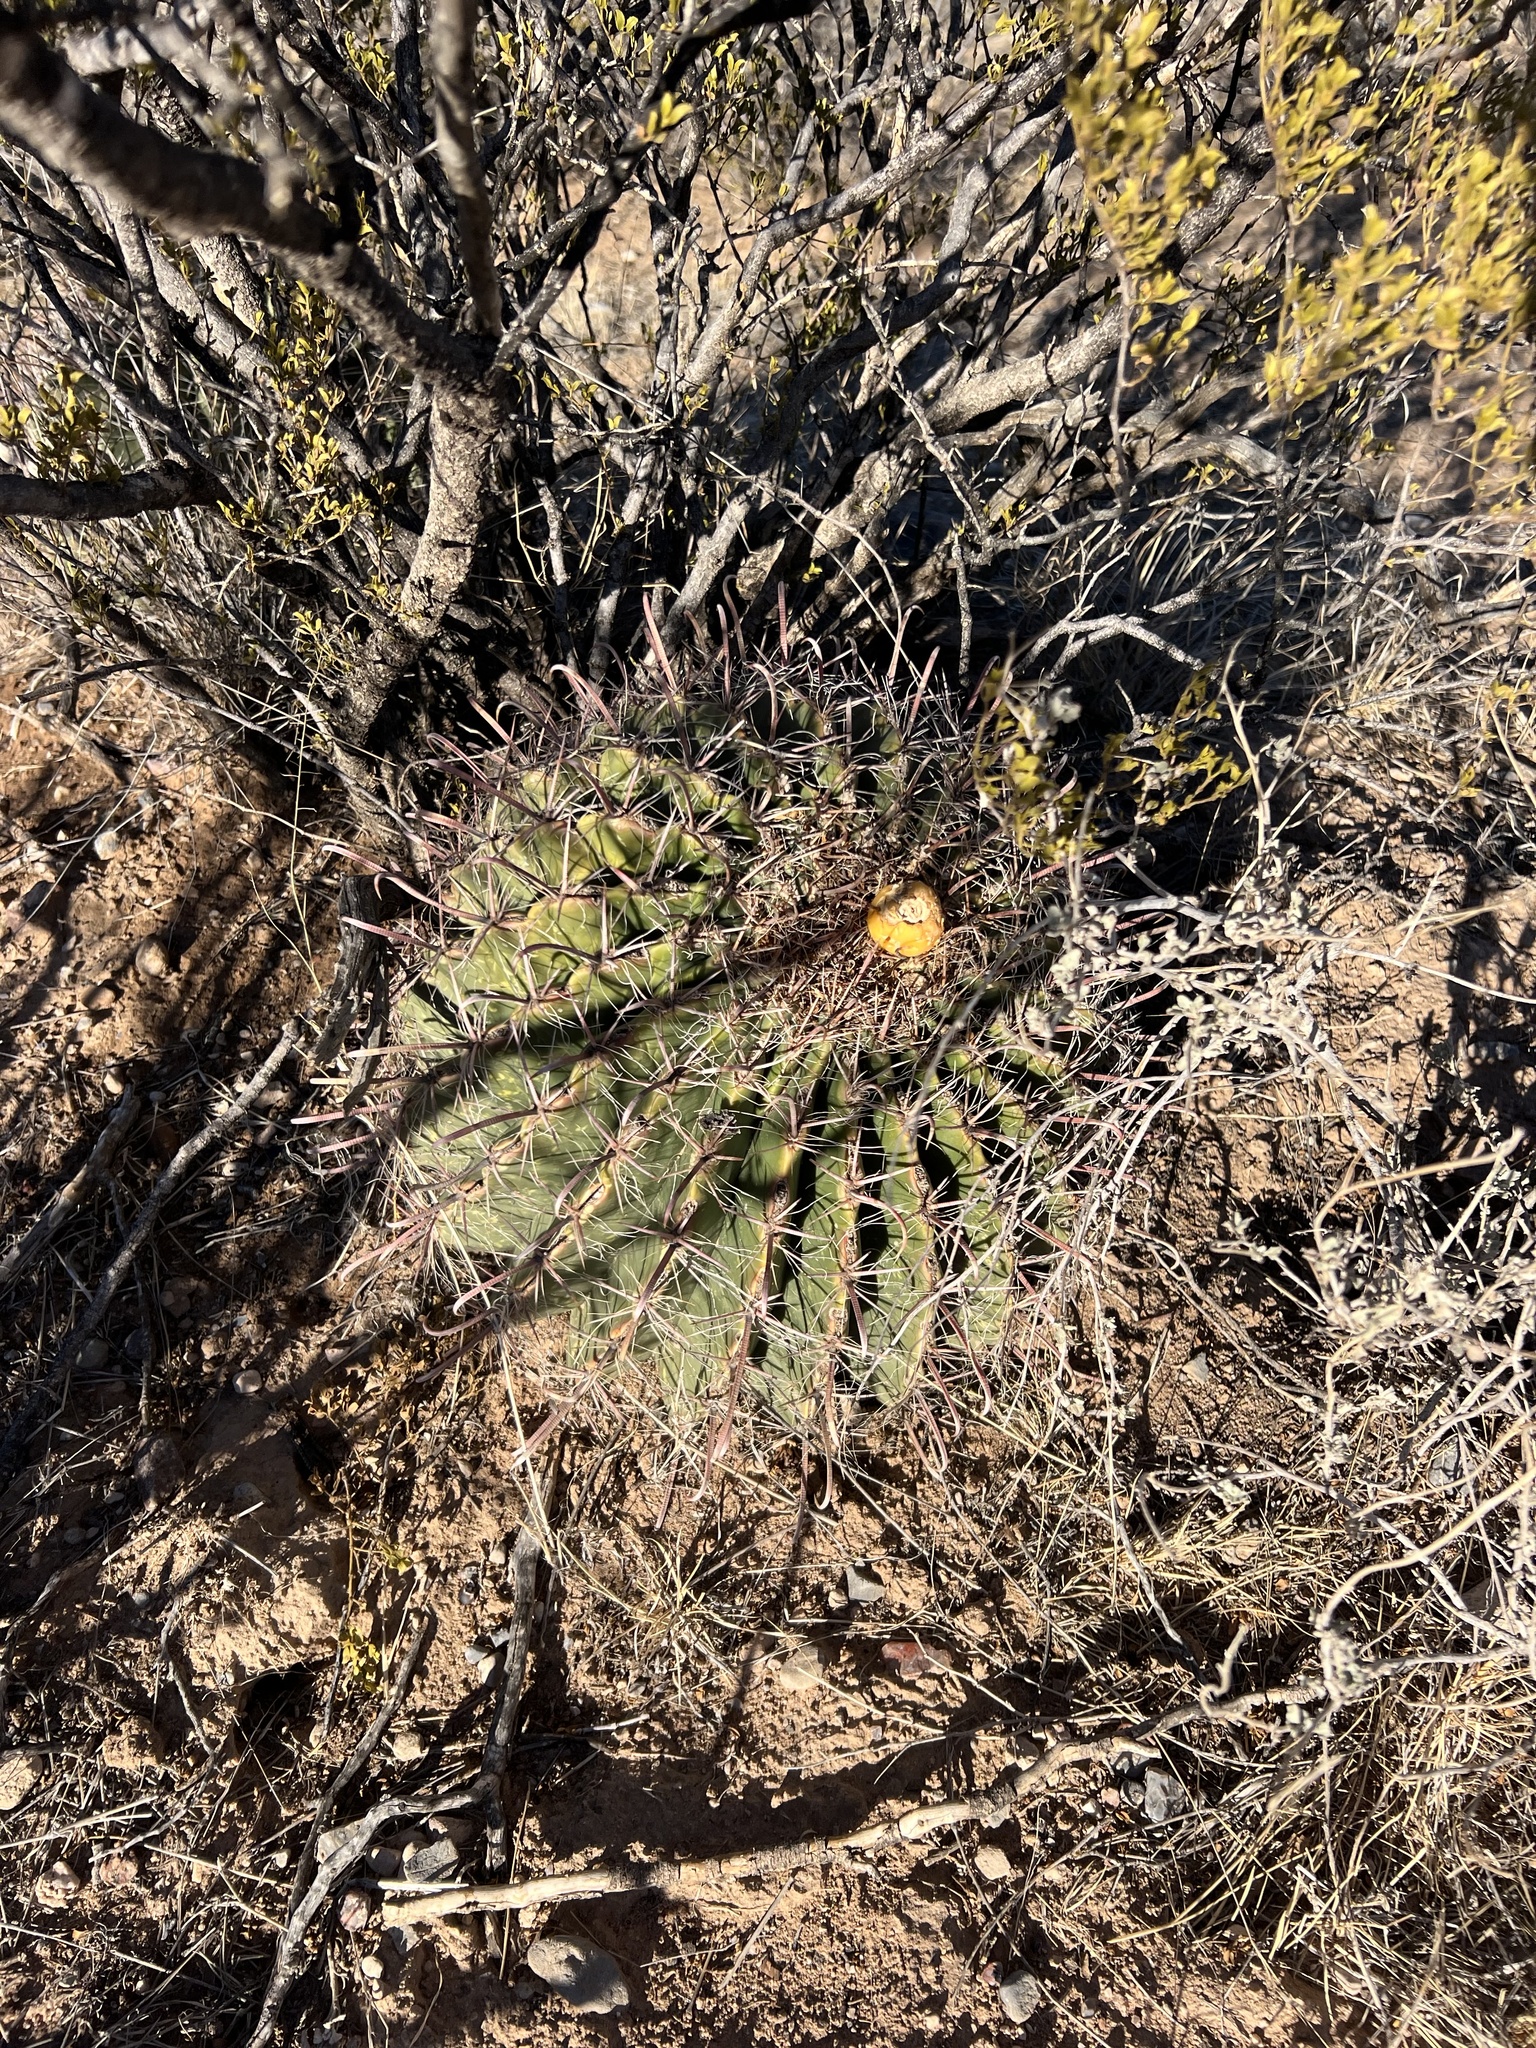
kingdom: Plantae
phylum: Tracheophyta
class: Magnoliopsida
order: Caryophyllales
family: Cactaceae
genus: Ferocactus
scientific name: Ferocactus wislizeni
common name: Candy barrel cactus
